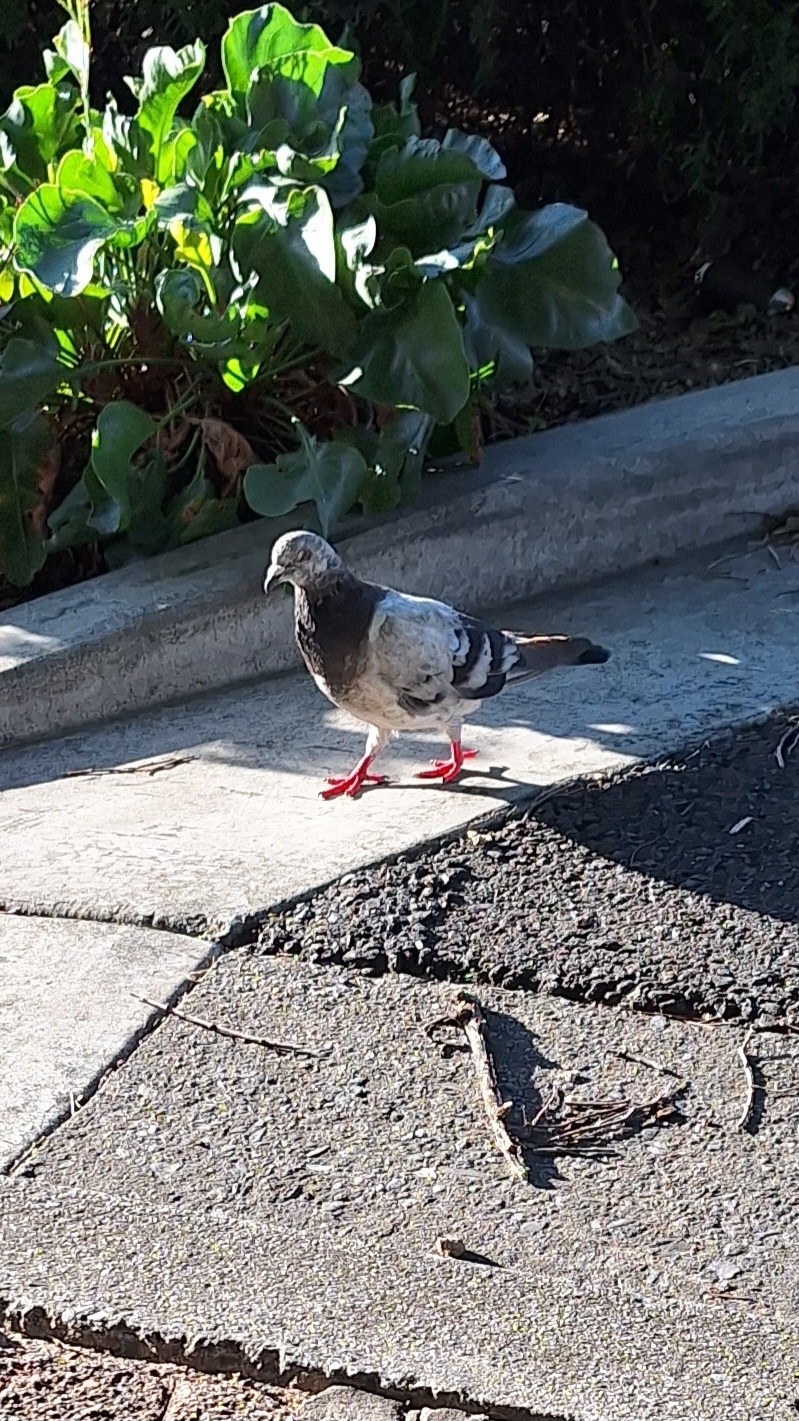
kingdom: Animalia
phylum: Chordata
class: Aves
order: Columbiformes
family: Columbidae
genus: Columba
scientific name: Columba livia
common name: Rock pigeon
